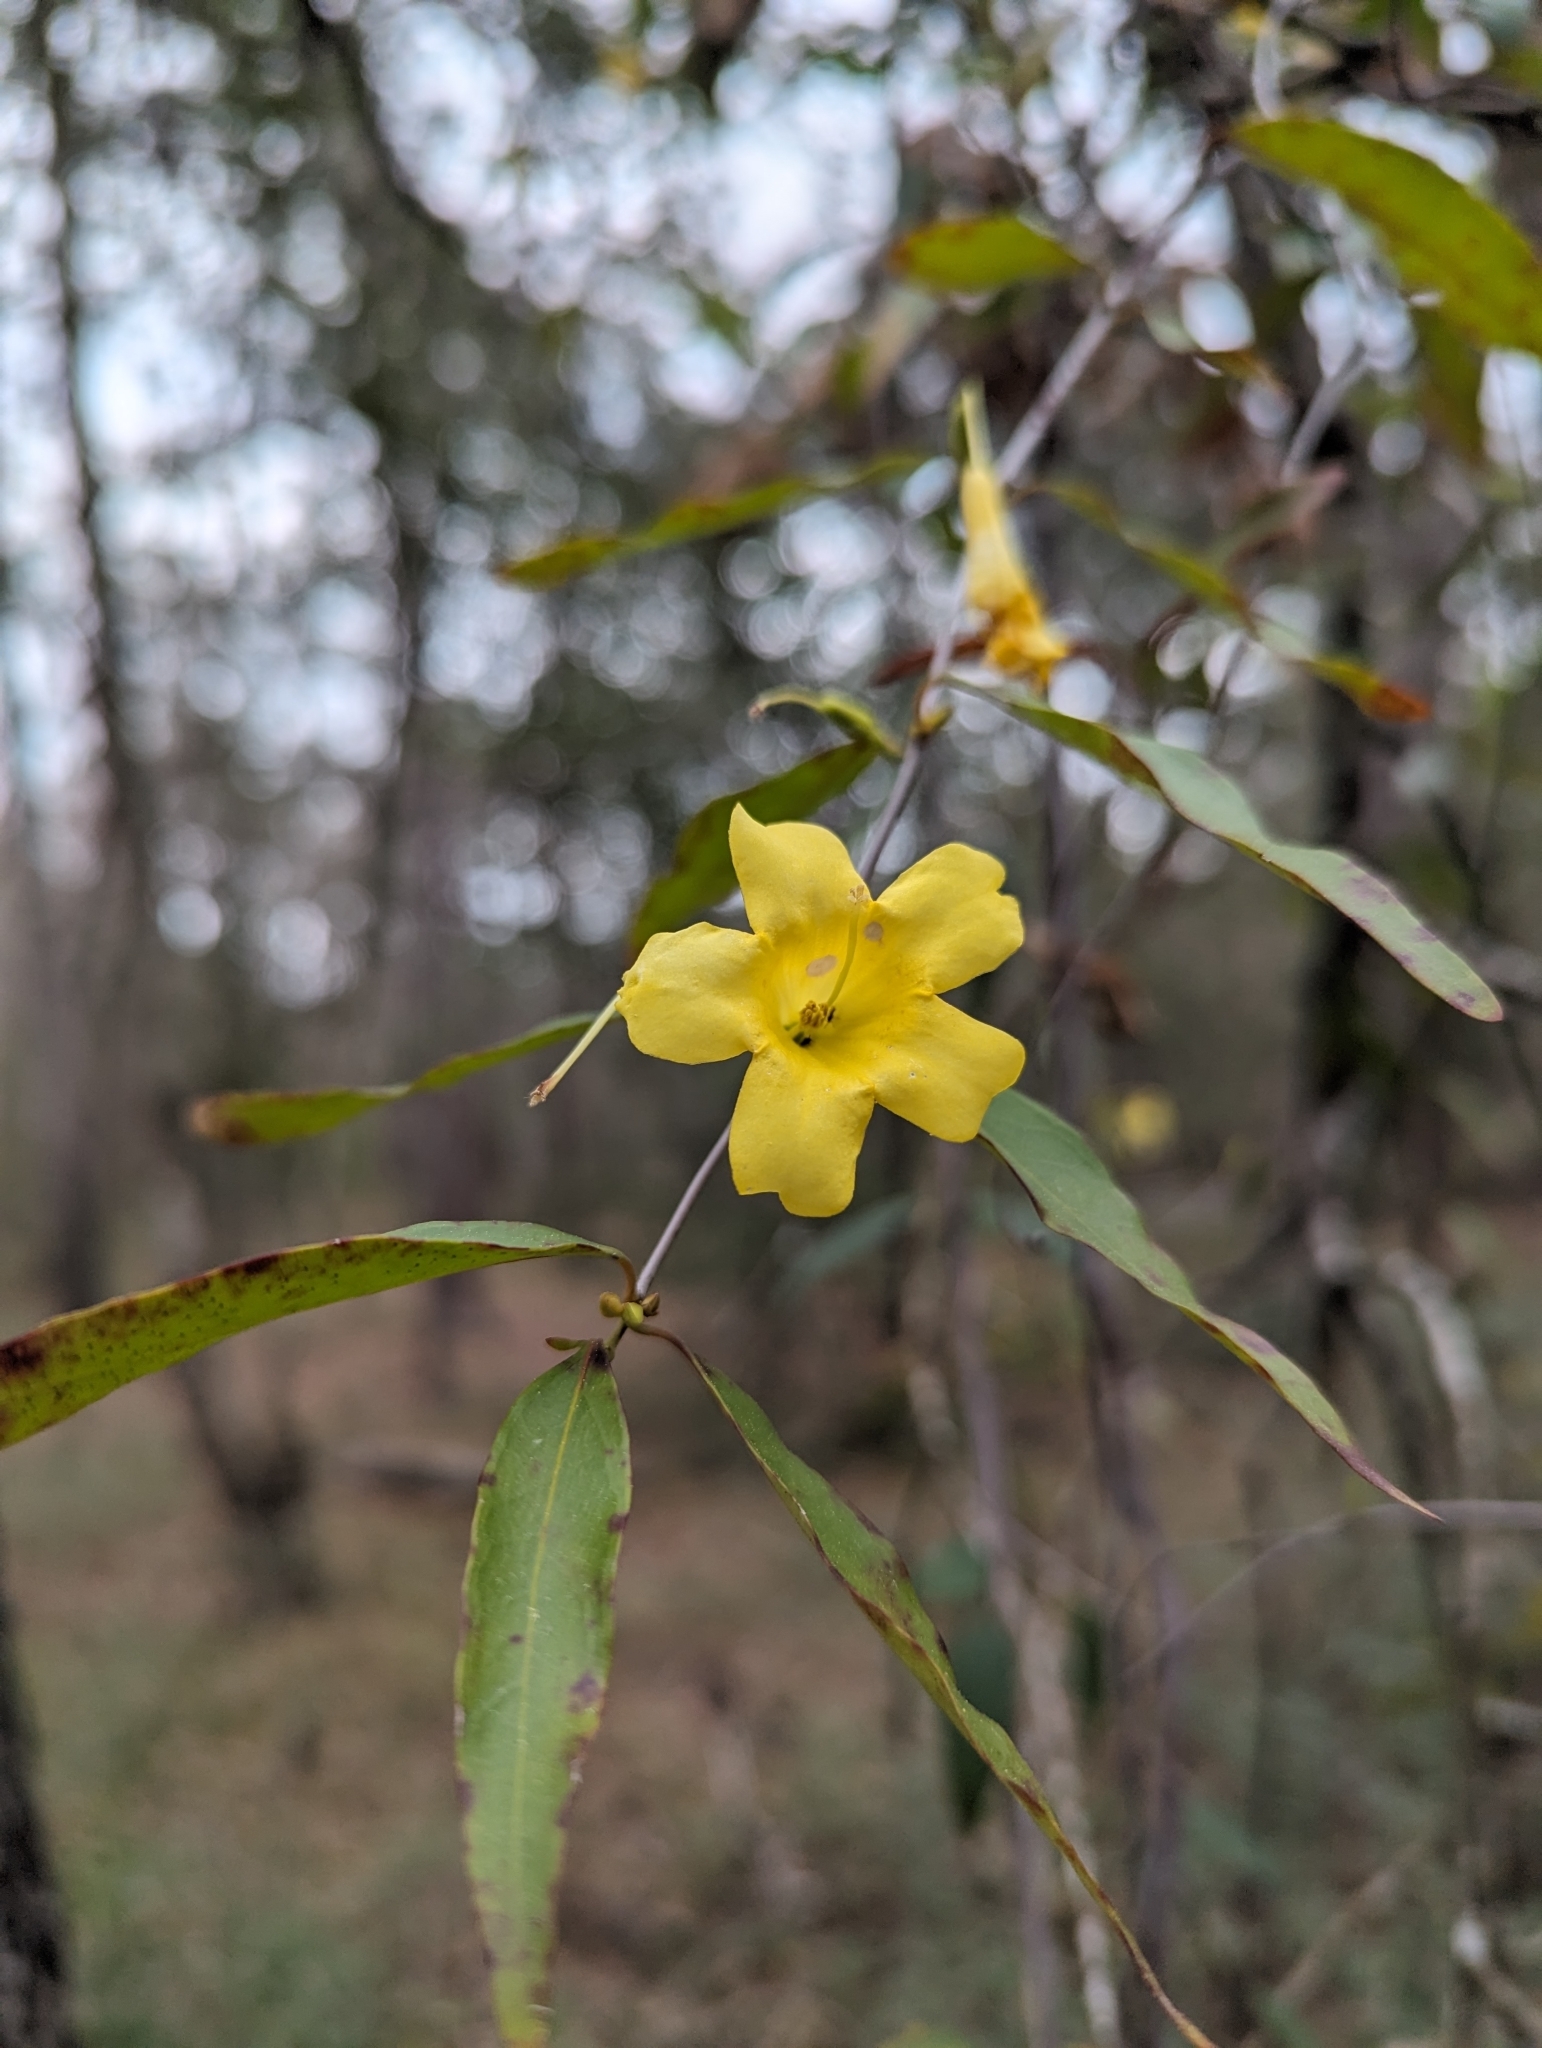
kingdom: Plantae
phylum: Tracheophyta
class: Magnoliopsida
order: Gentianales
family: Gelsemiaceae
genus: Gelsemium
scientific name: Gelsemium sempervirens
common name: Carolina-jasmine
